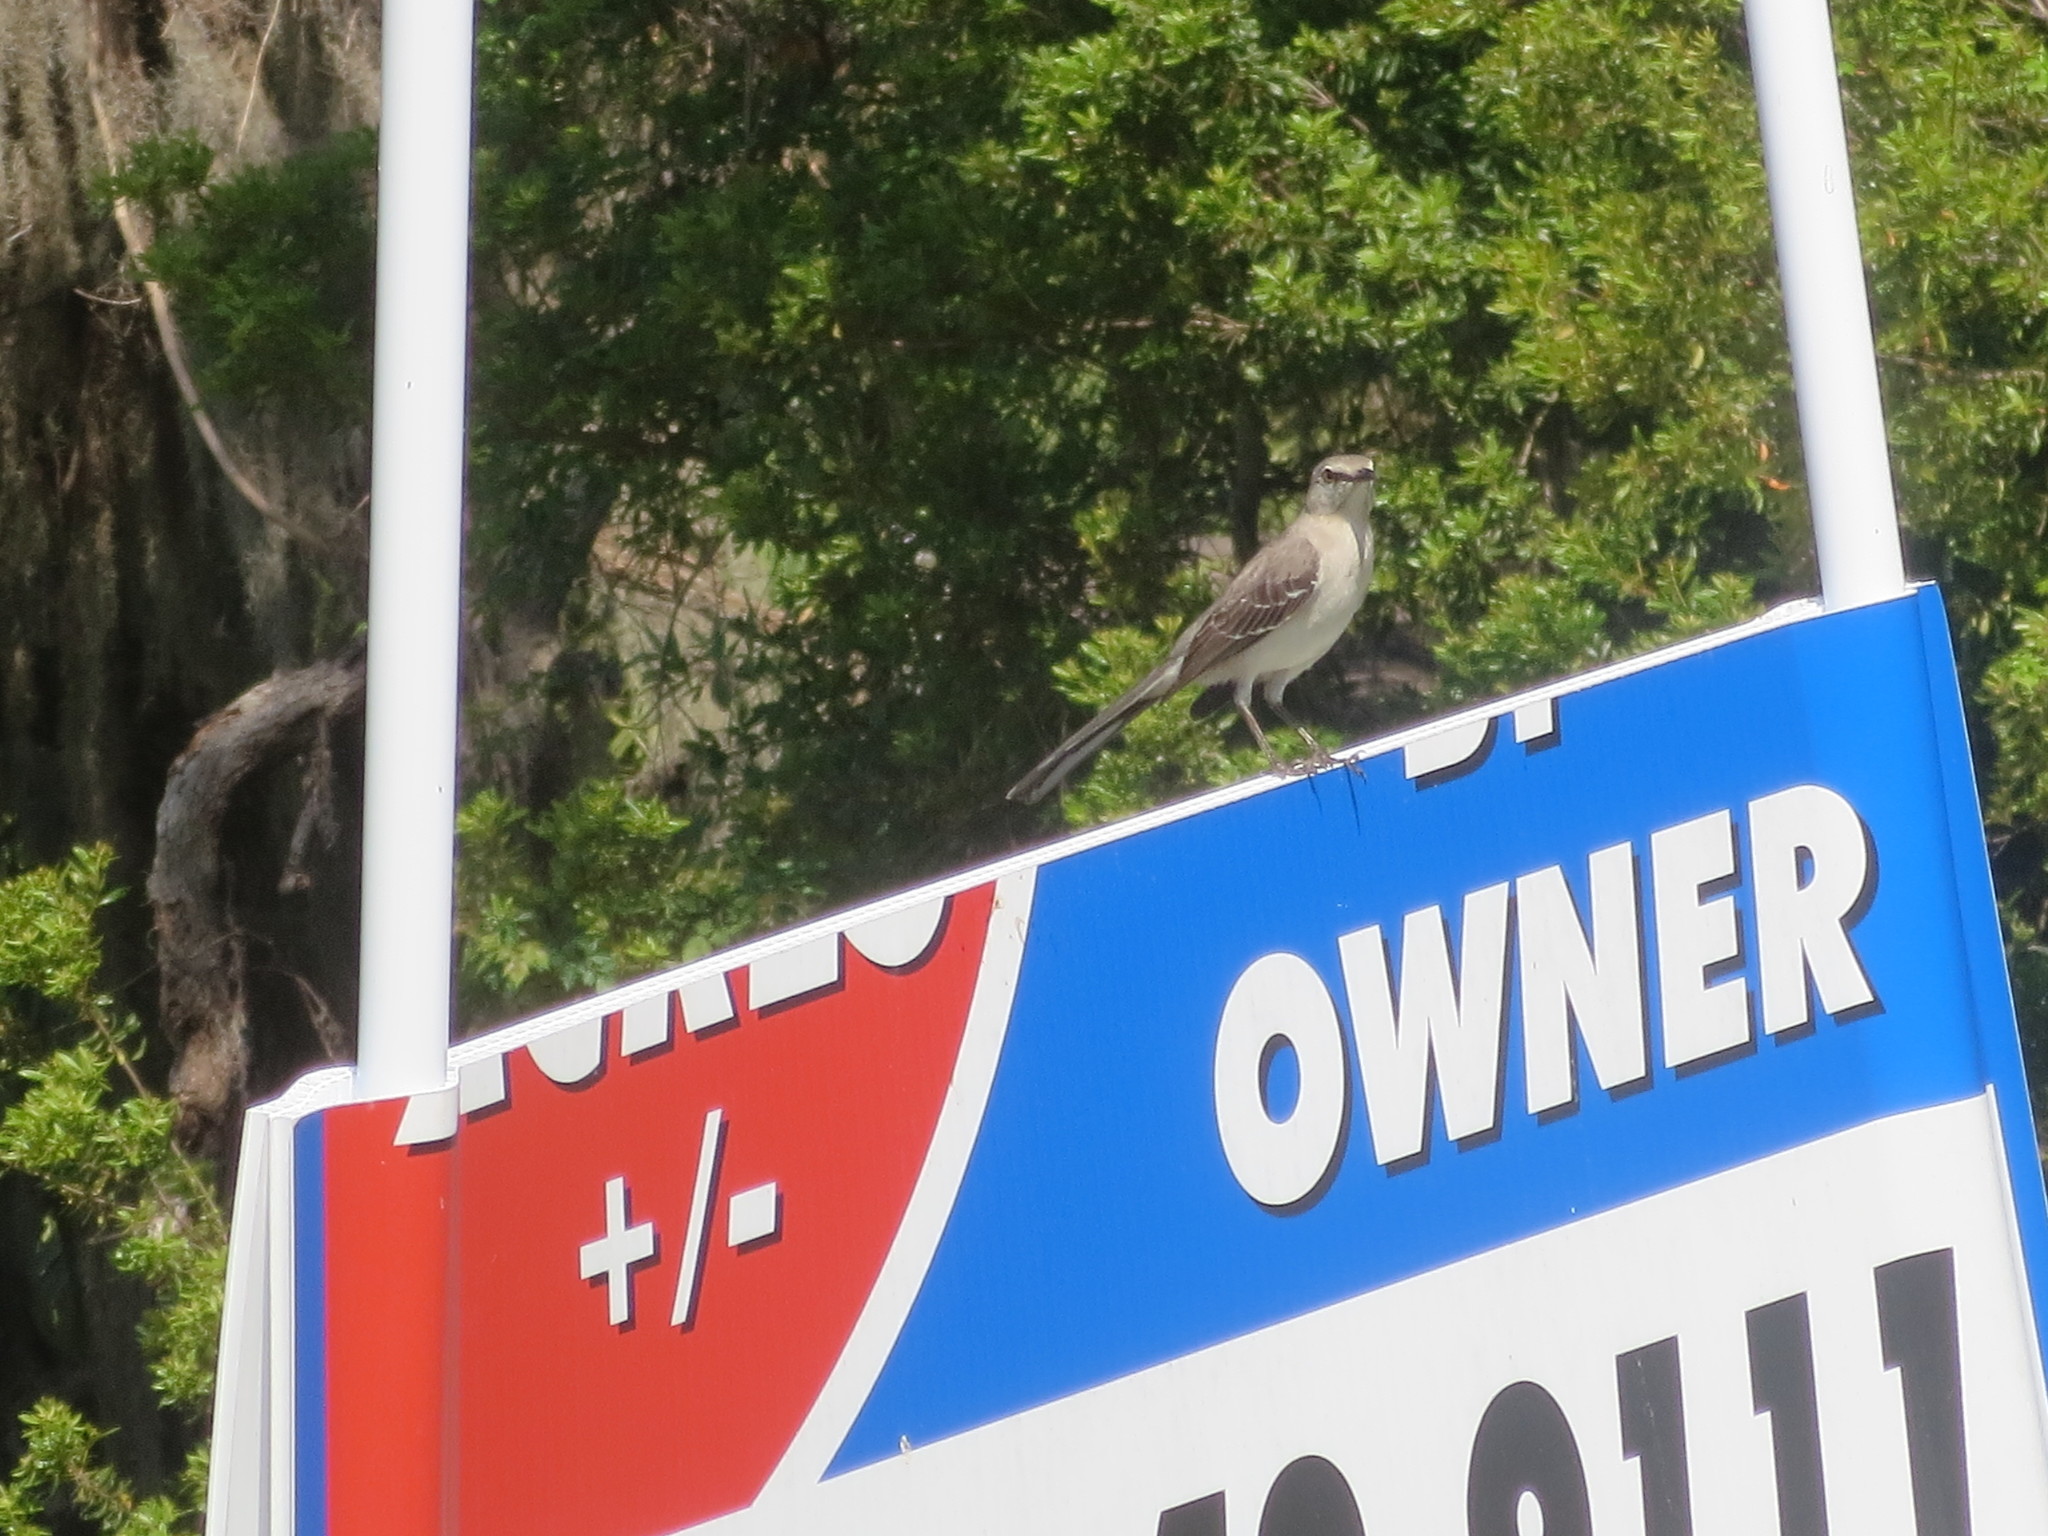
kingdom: Animalia
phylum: Chordata
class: Aves
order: Passeriformes
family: Mimidae
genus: Mimus
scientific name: Mimus polyglottos
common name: Northern mockingbird
